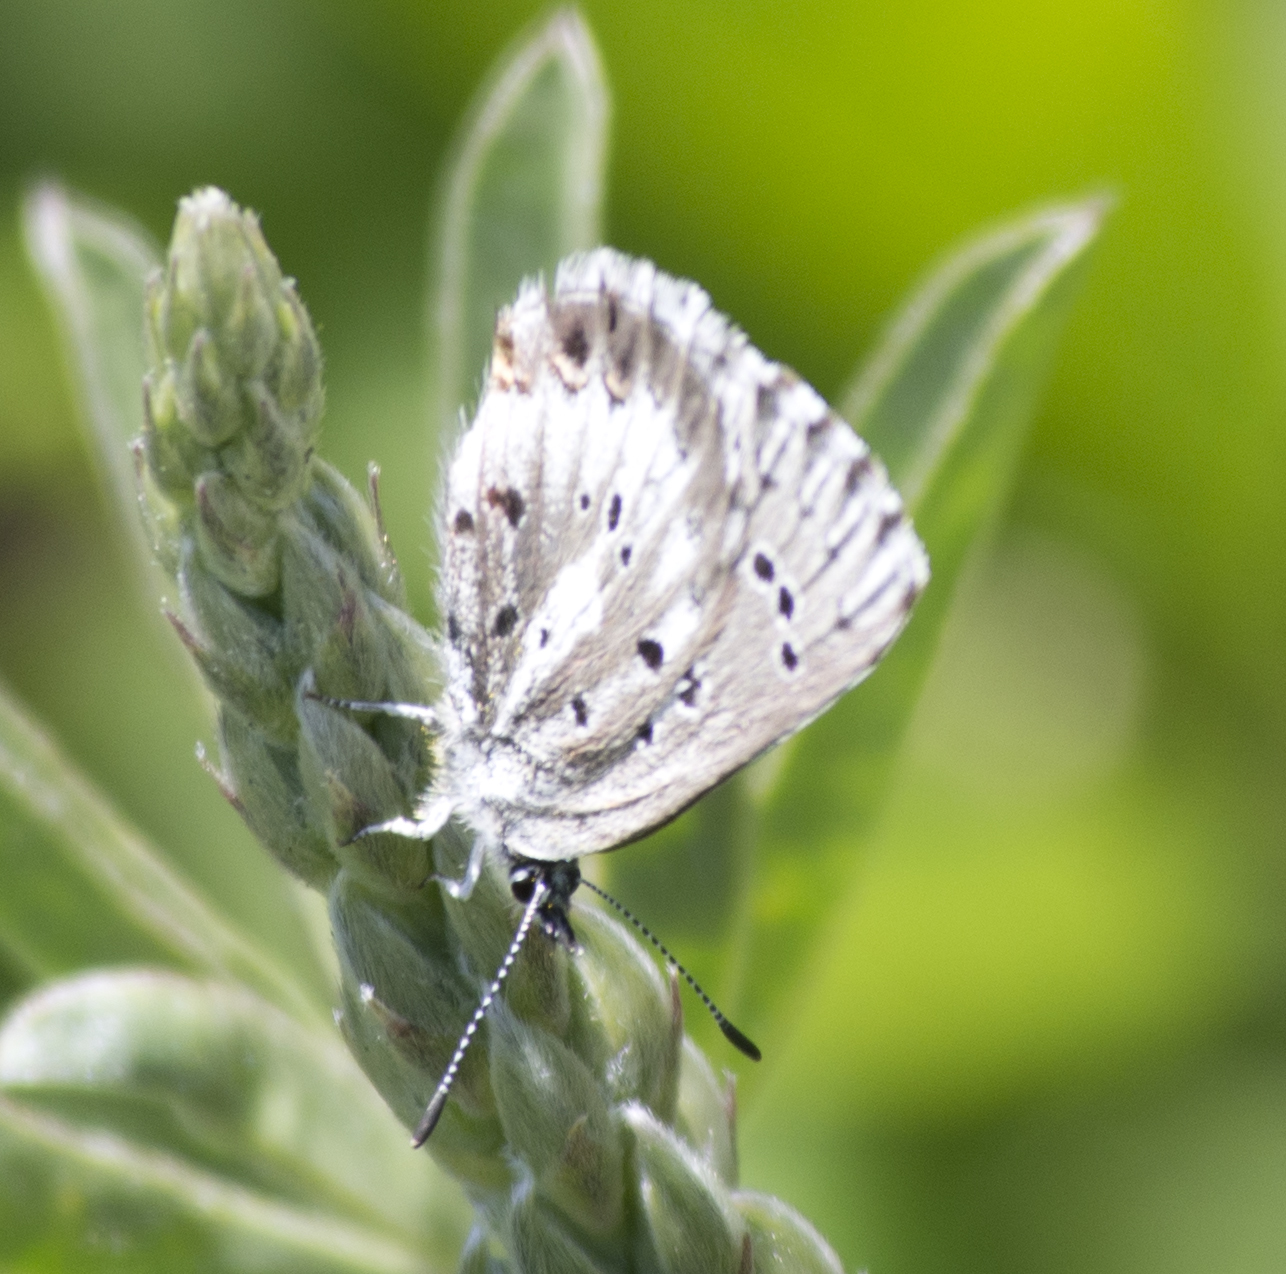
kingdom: Animalia
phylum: Arthropoda
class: Insecta
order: Lepidoptera
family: Lycaenidae
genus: Glaucopsyche
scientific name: Glaucopsyche piasus
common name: Arrowhead blue
